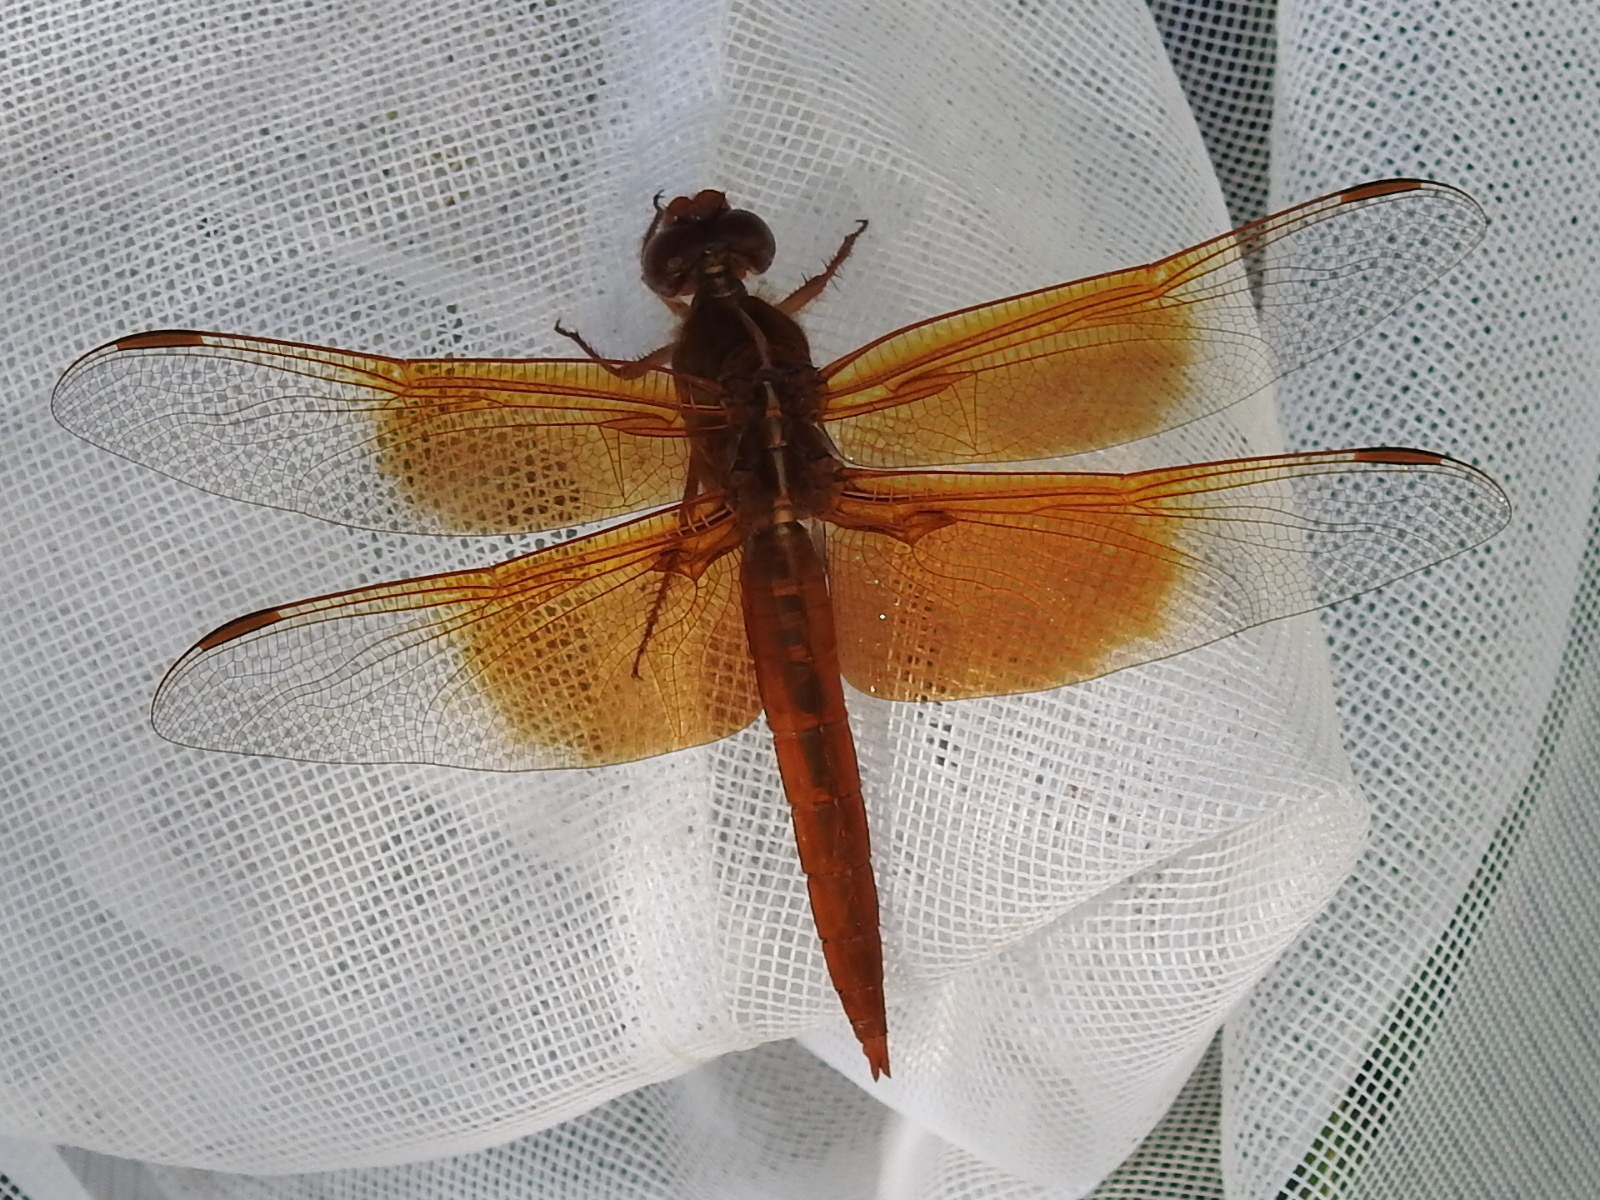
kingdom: Animalia
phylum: Arthropoda
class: Insecta
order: Odonata
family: Libellulidae
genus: Libellula
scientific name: Libellula saturata
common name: Flame skimmer
